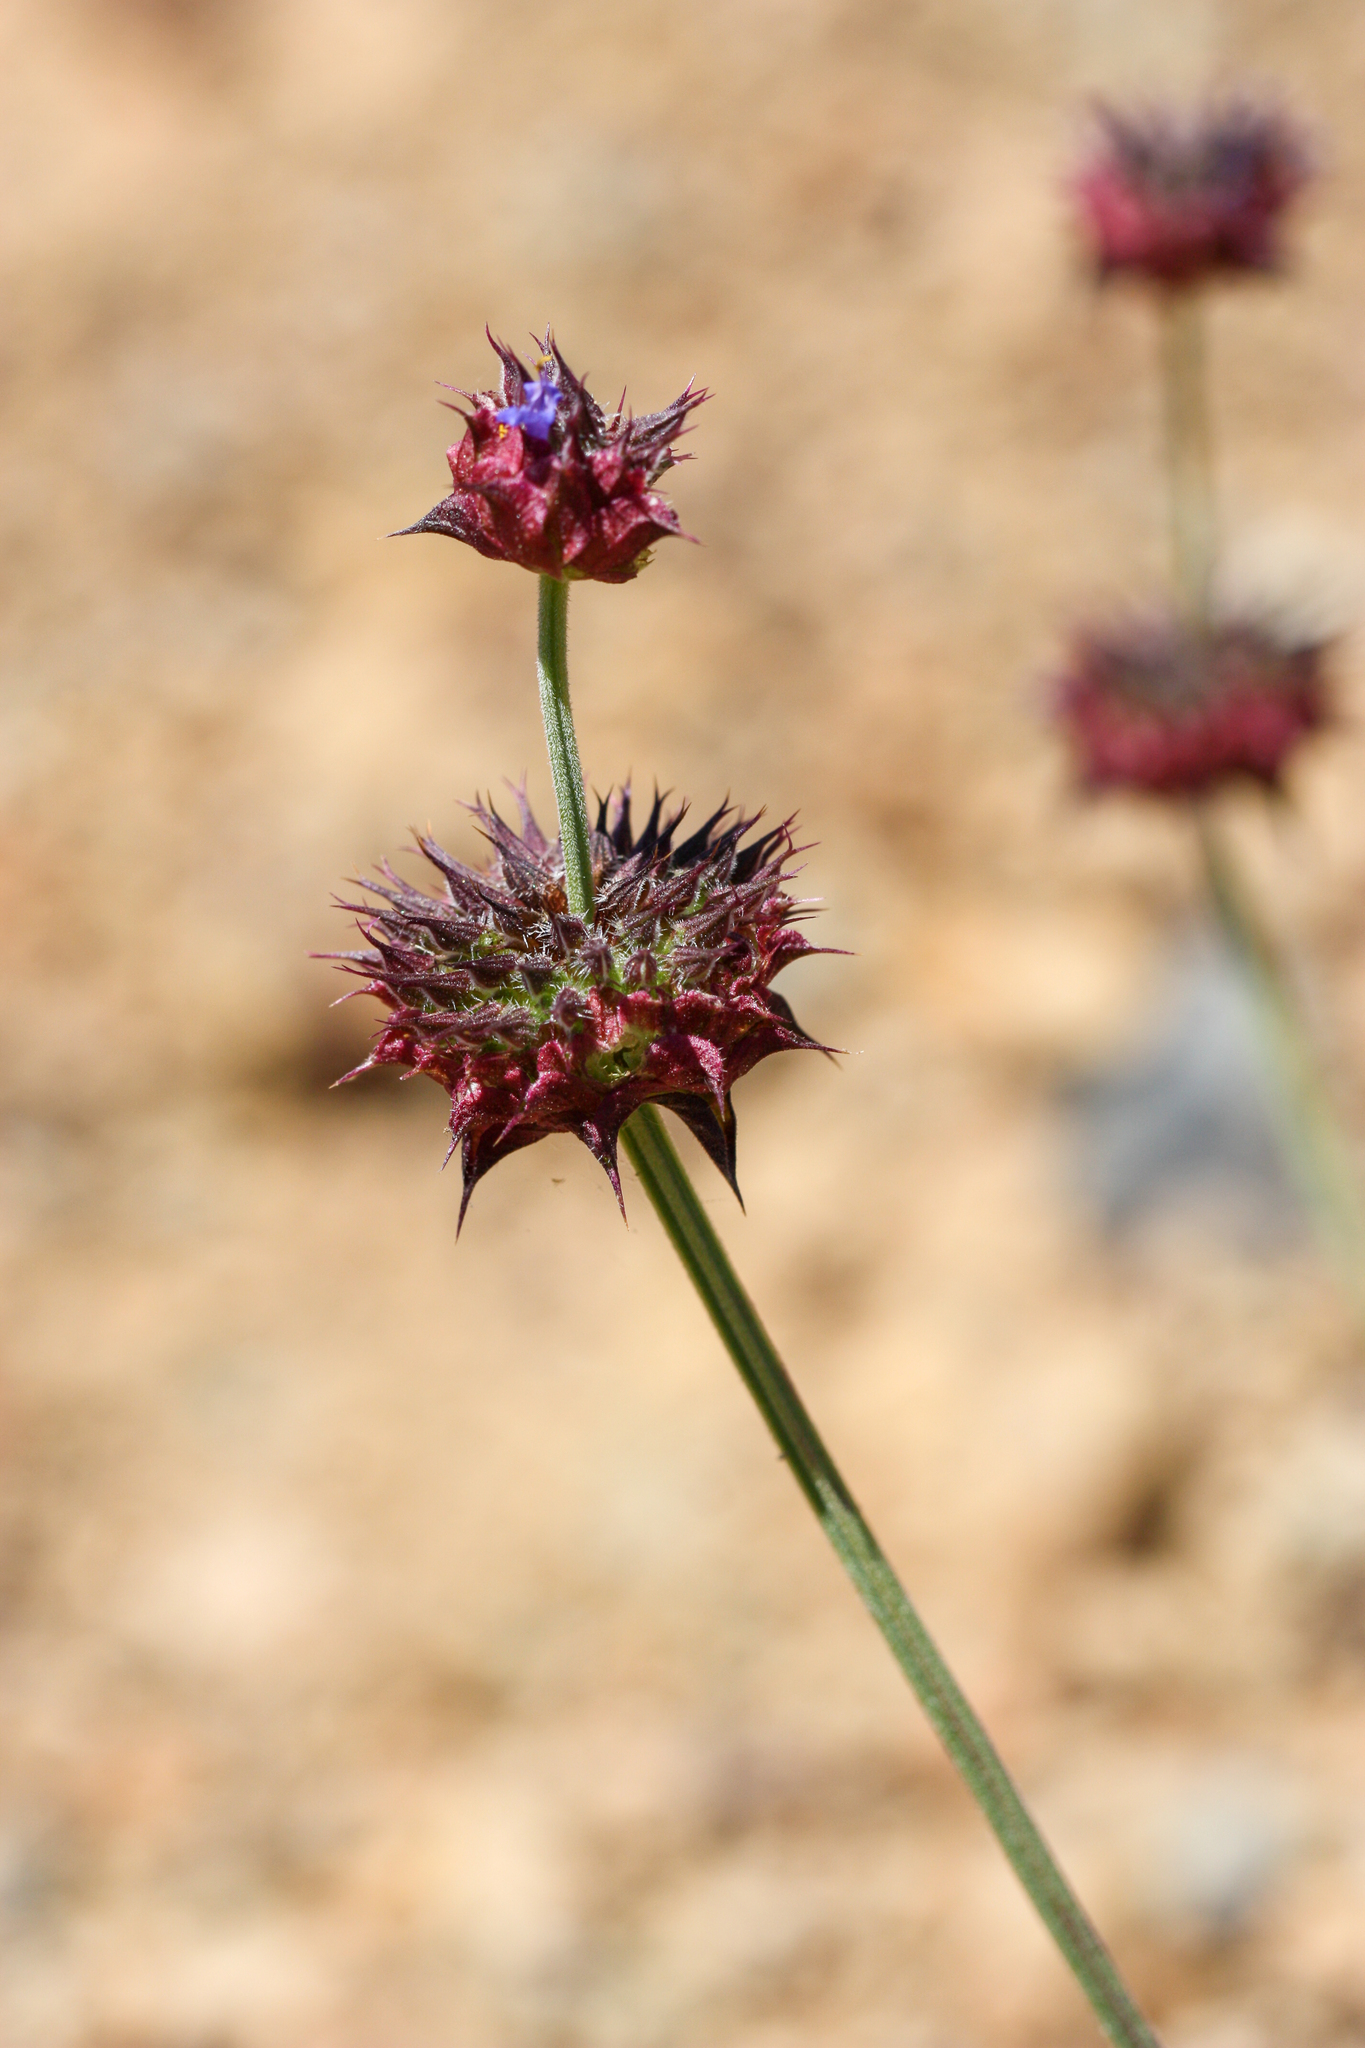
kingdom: Plantae
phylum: Tracheophyta
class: Magnoliopsida
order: Lamiales
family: Lamiaceae
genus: Salvia
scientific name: Salvia columbariae
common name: Chia
